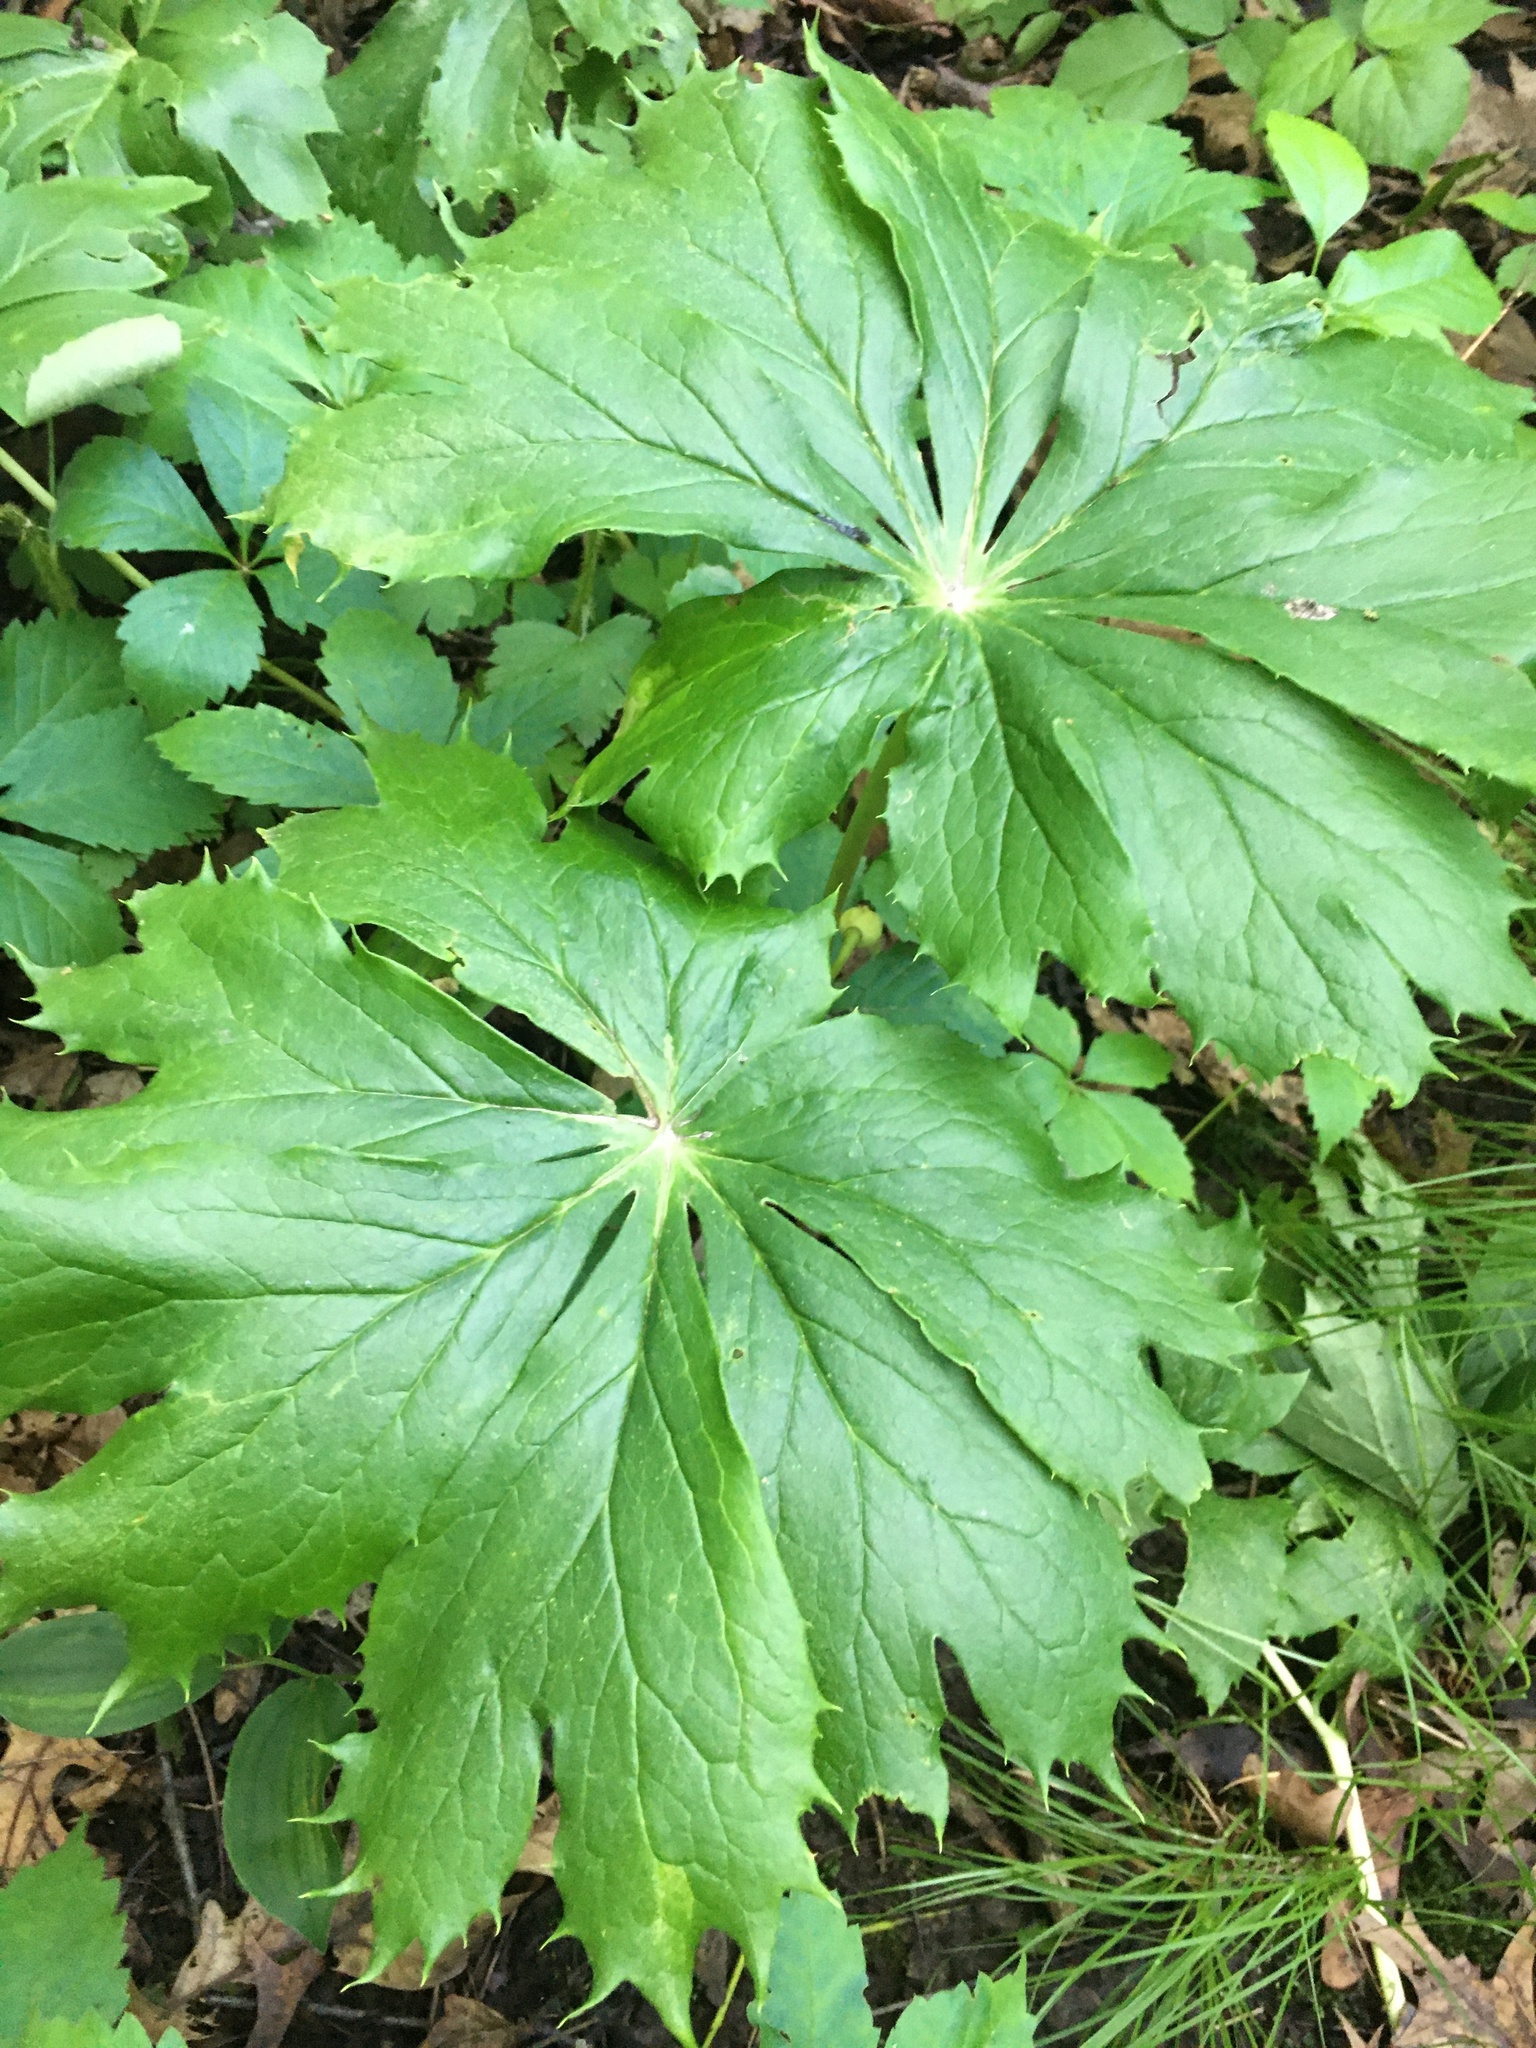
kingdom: Plantae
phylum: Tracheophyta
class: Magnoliopsida
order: Ranunculales
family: Berberidaceae
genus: Podophyllum
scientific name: Podophyllum peltatum
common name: Wild mandrake
